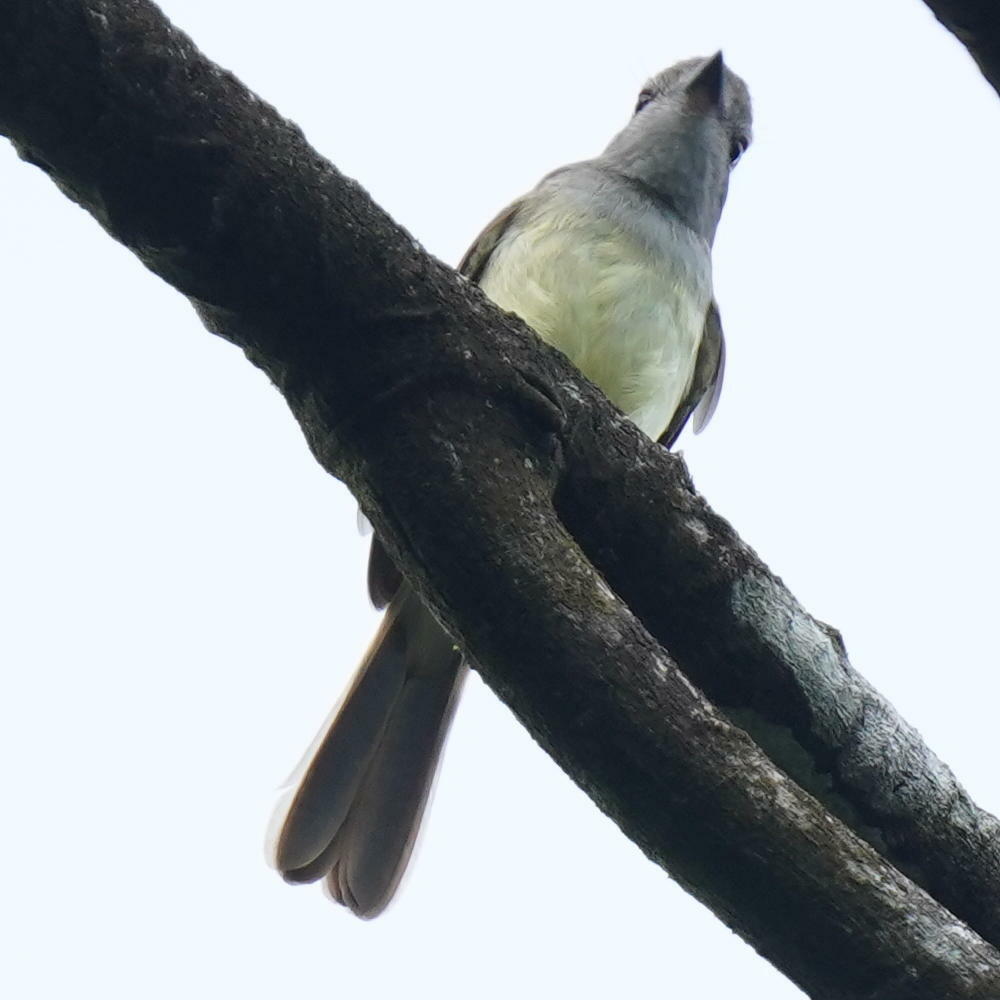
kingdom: Animalia
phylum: Chordata
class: Aves
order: Passeriformes
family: Tyrannidae
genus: Myiarchus
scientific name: Myiarchus panamensis
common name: Panama flycatcher
